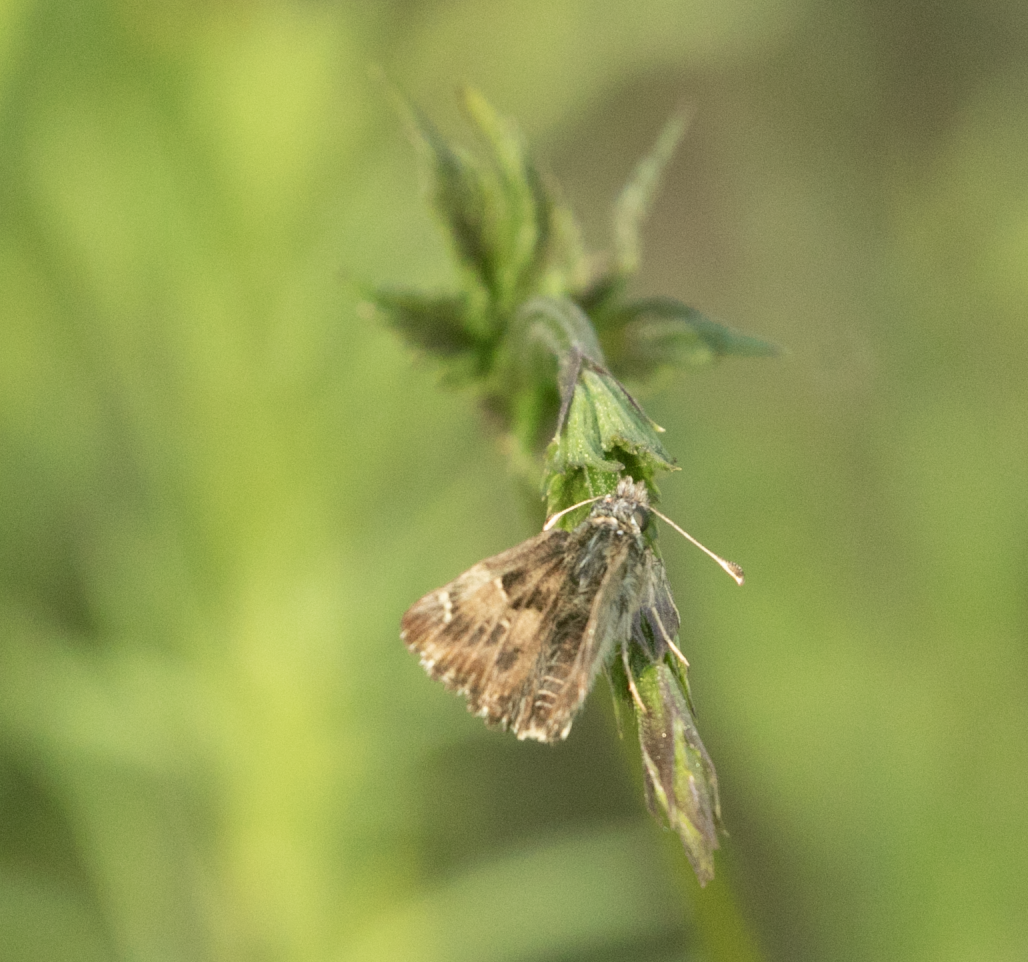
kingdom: Animalia
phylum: Arthropoda
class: Insecta
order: Lepidoptera
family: Hesperiidae
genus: Carcharodus
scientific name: Carcharodus alceae
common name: Mallow skipper
